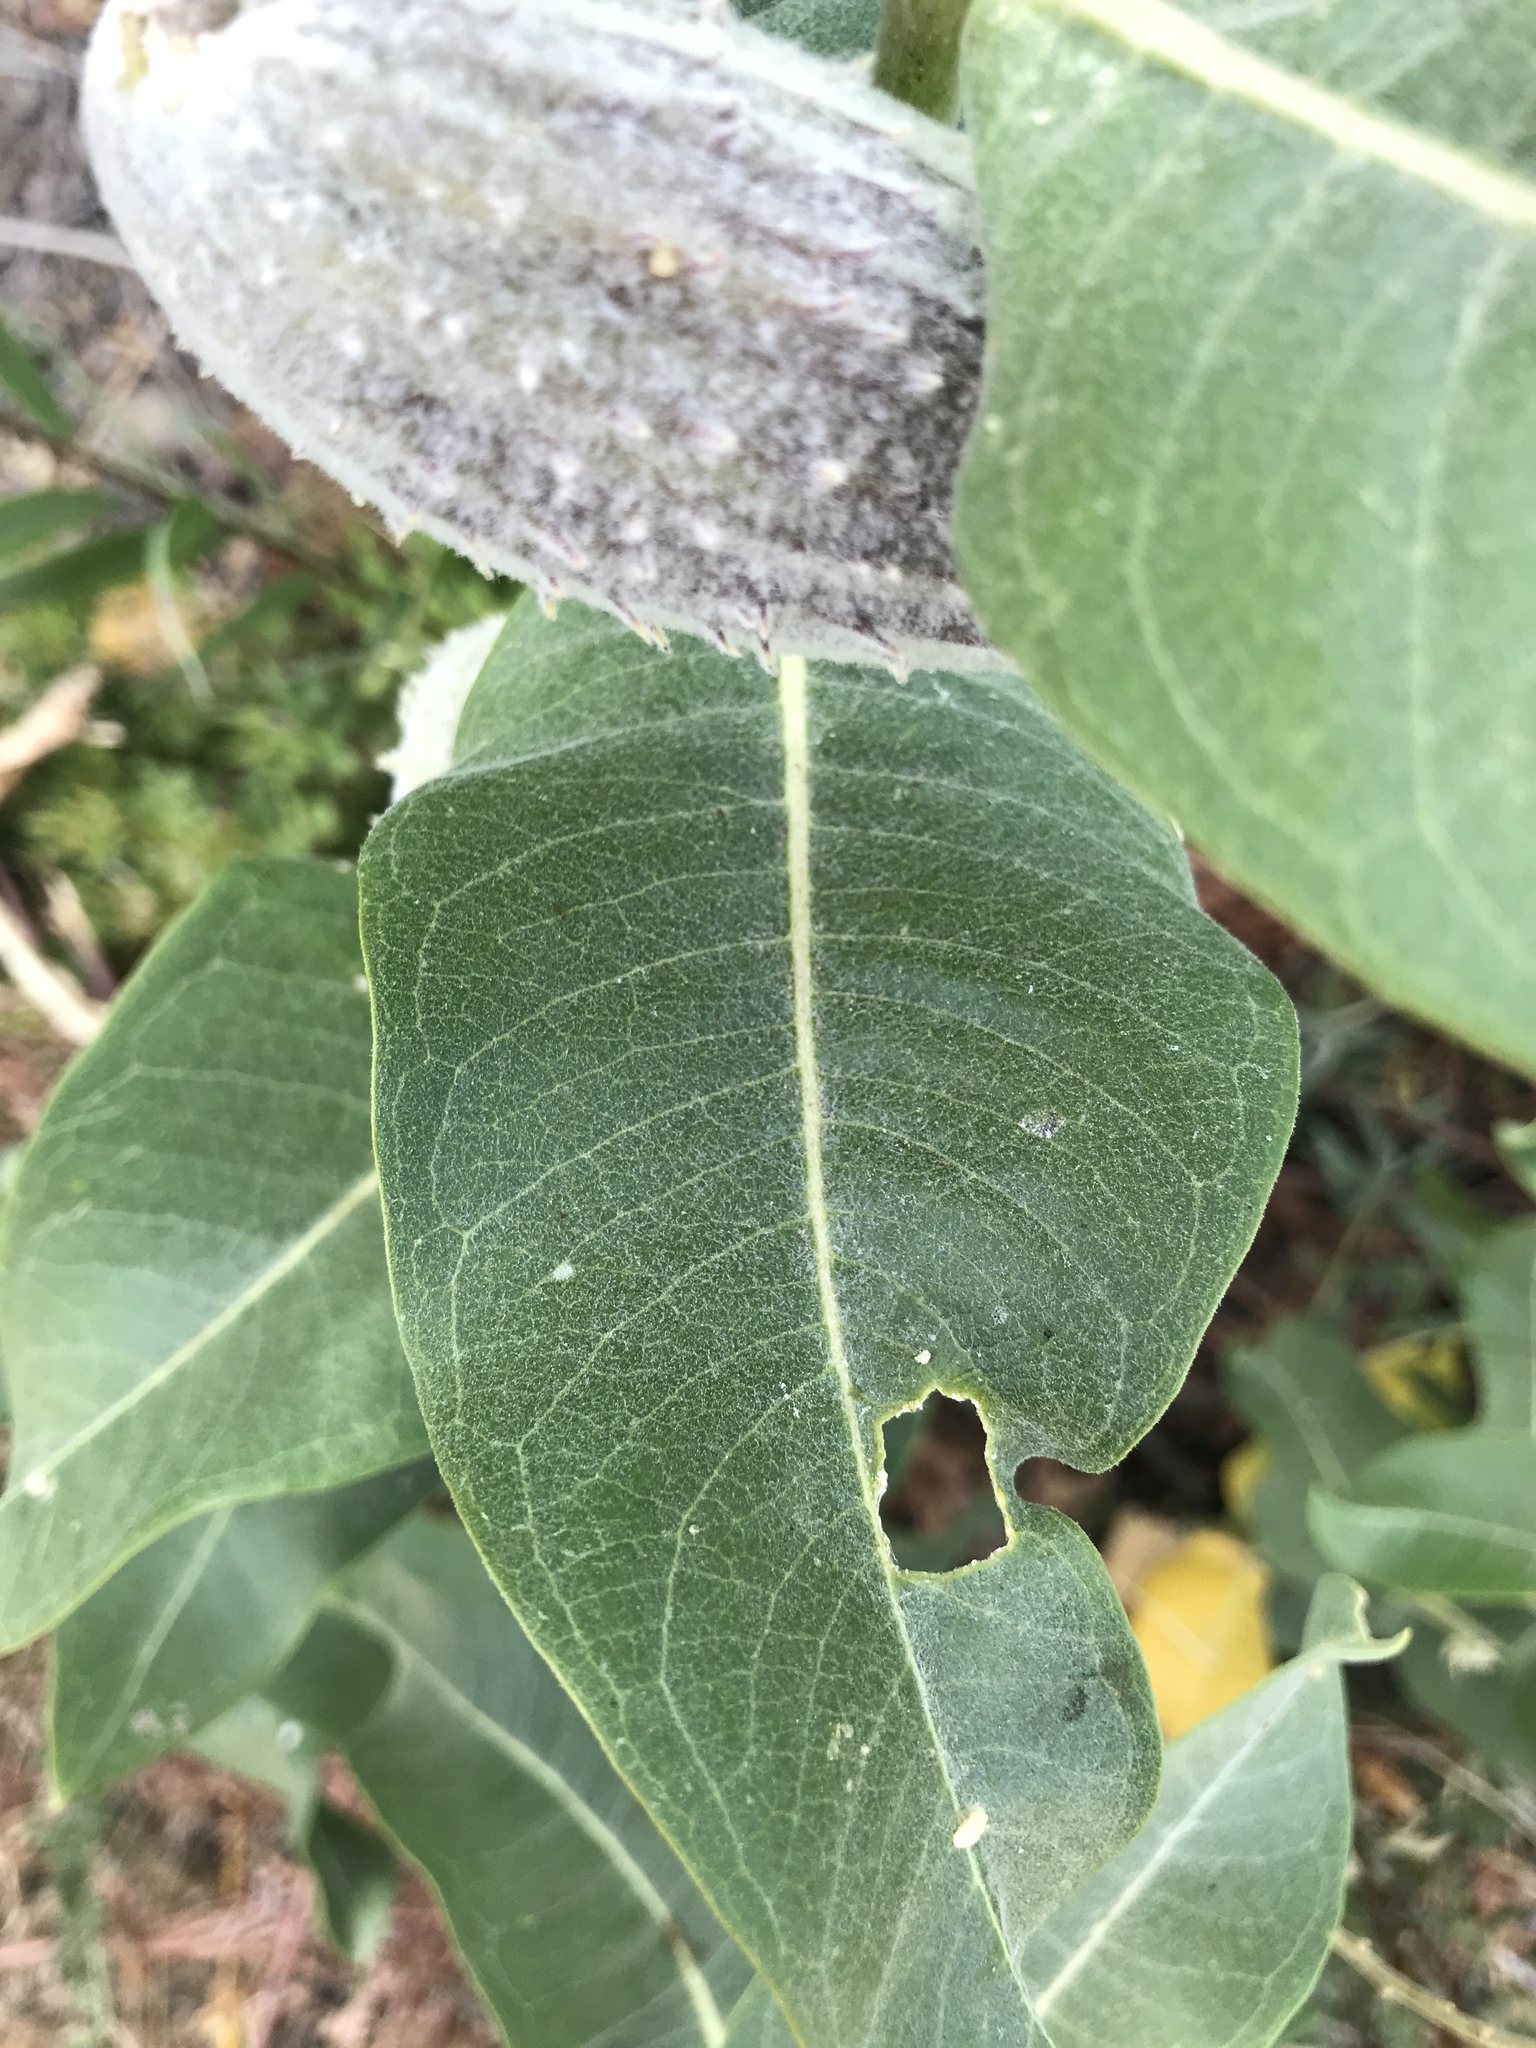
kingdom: Plantae
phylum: Tracheophyta
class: Magnoliopsida
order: Gentianales
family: Apocynaceae
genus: Asclepias
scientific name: Asclepias speciosa
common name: Showy milkweed
